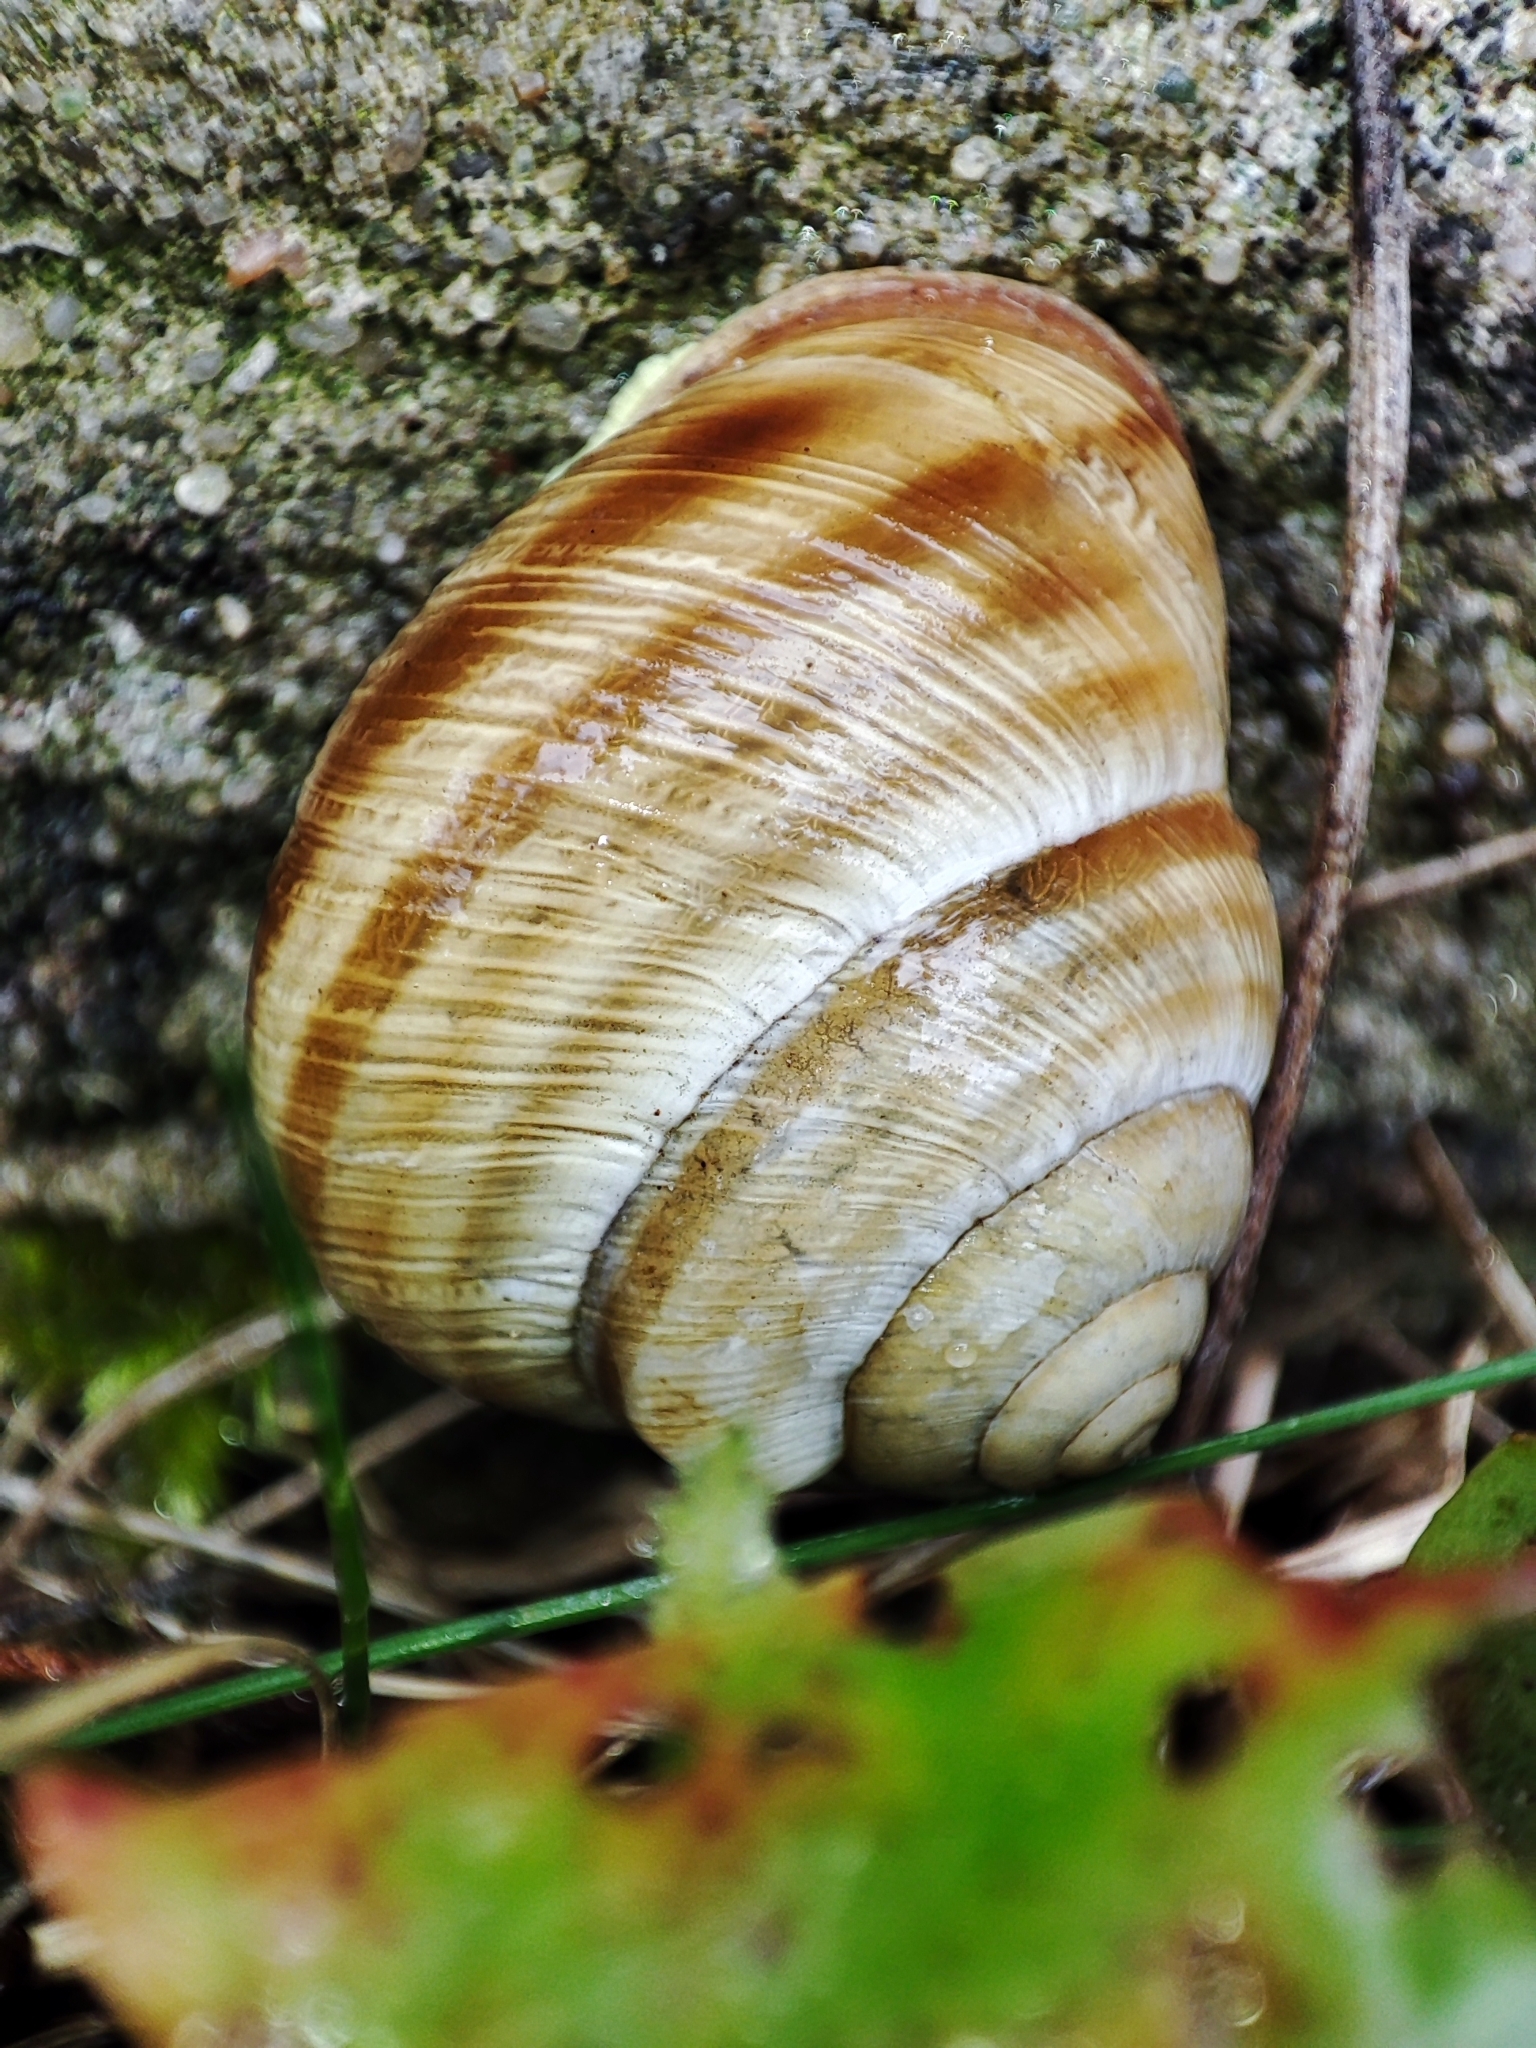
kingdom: Animalia
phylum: Mollusca
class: Gastropoda
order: Stylommatophora
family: Helicidae
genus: Caucasotachea
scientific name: Caucasotachea vindobonensis
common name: European helicid land snail
